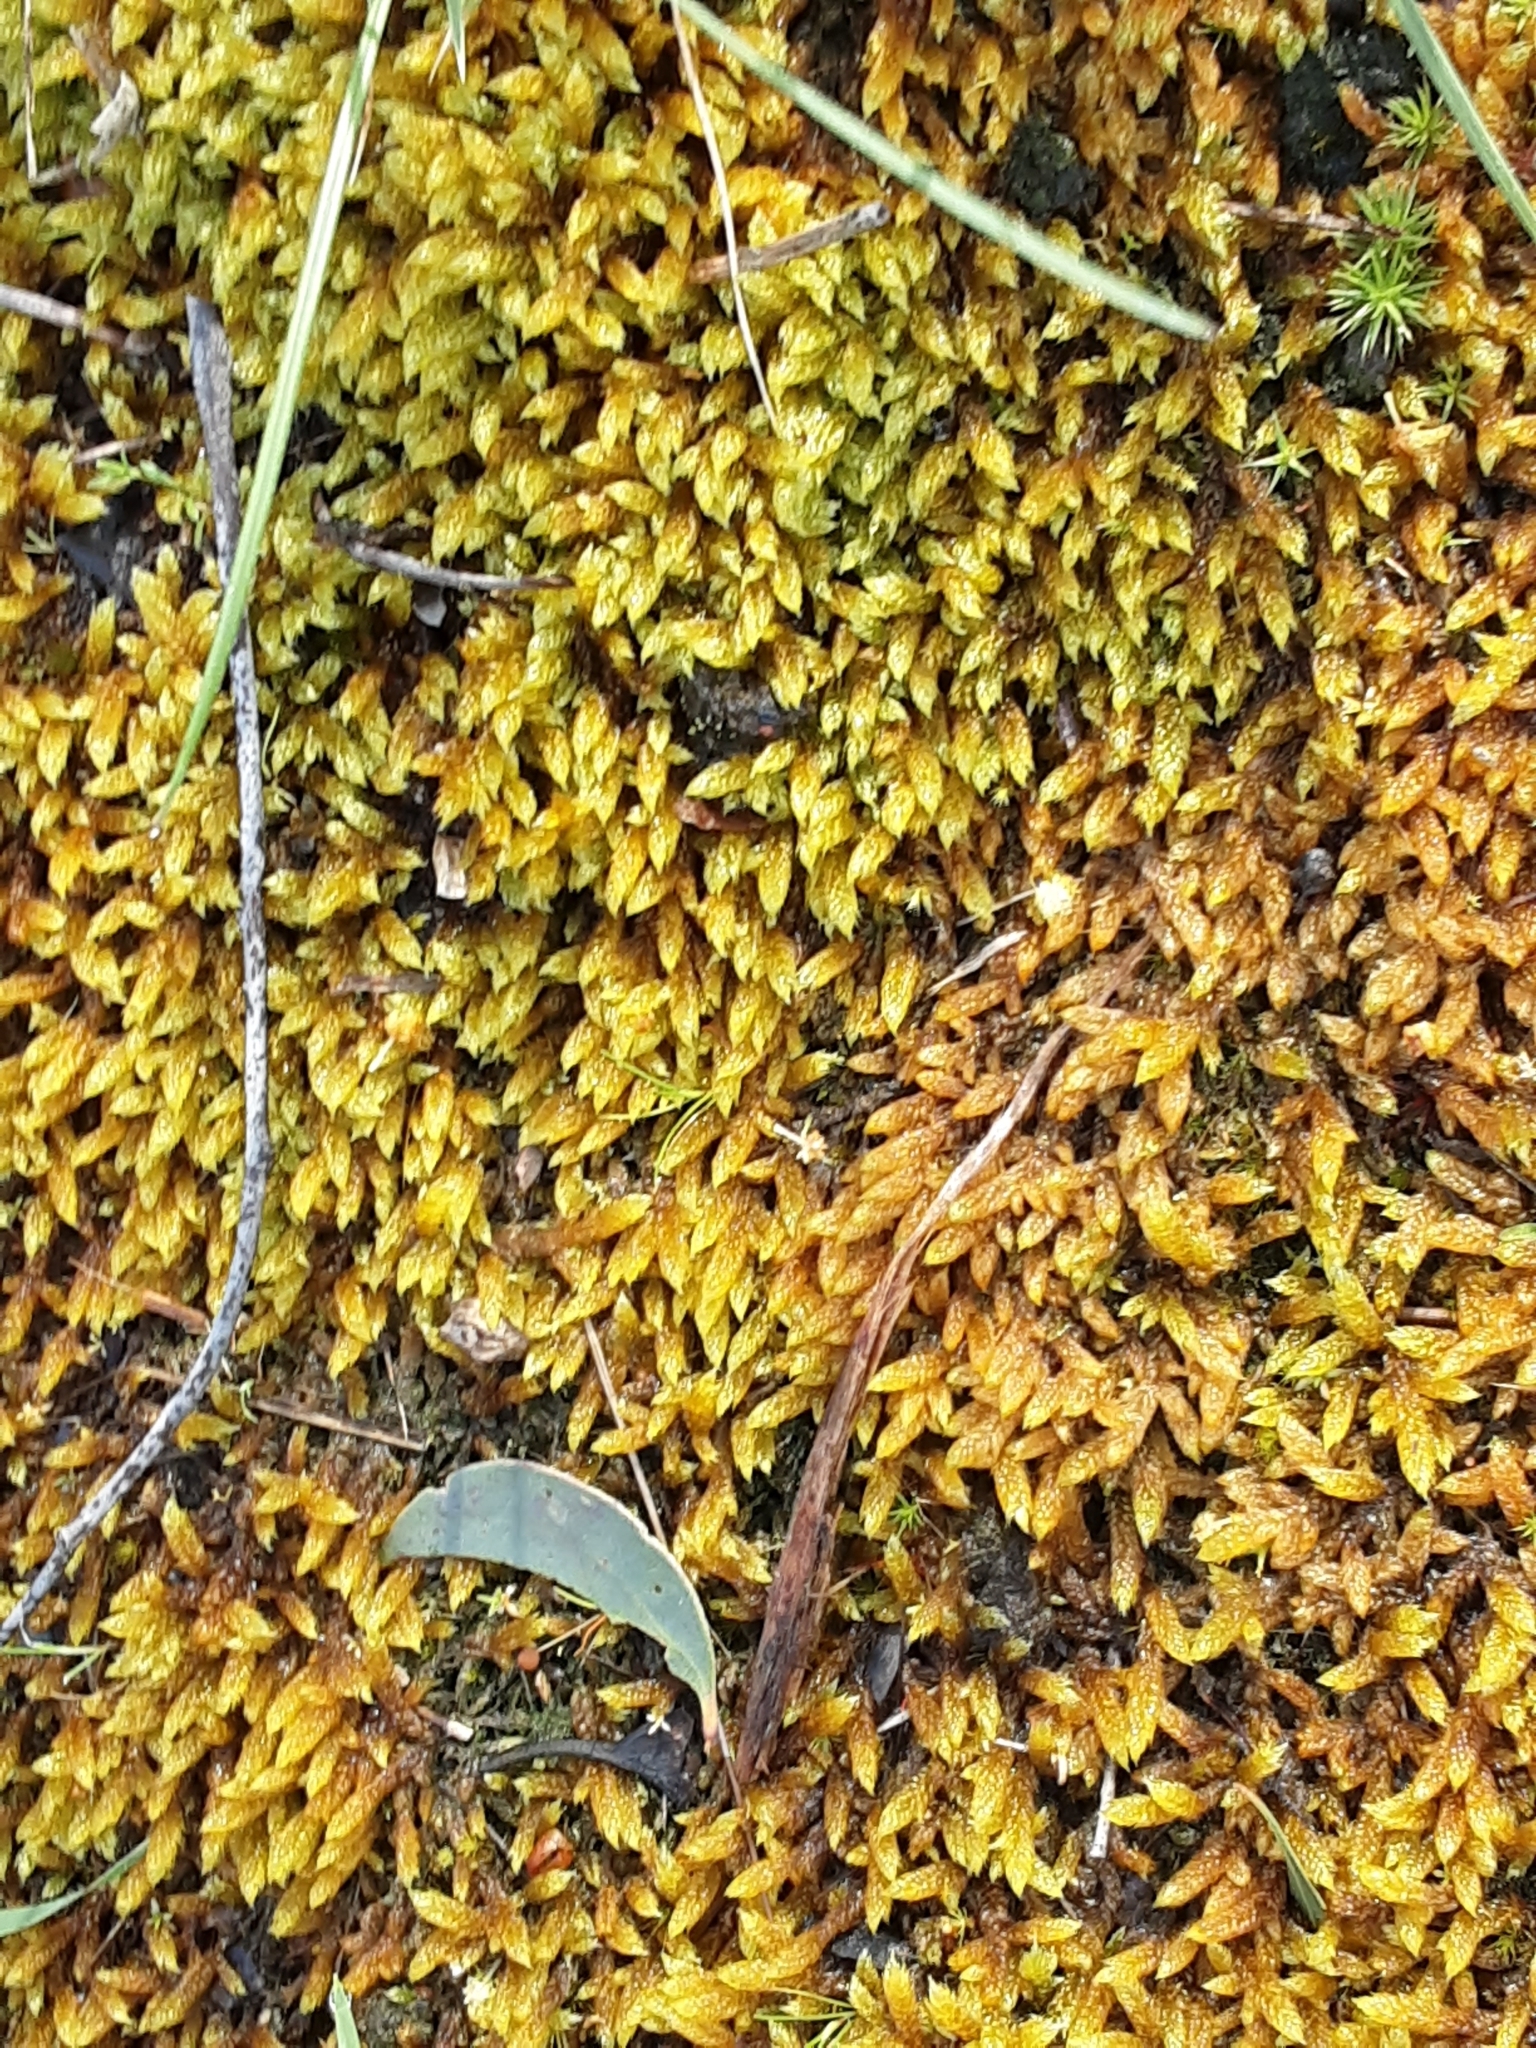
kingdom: Plantae
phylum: Bryophyta
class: Bryopsida
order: Hypnales
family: Hypnaceae
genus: Hypnum
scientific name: Hypnum cupressiforme
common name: Cypress-leaved plait-moss
